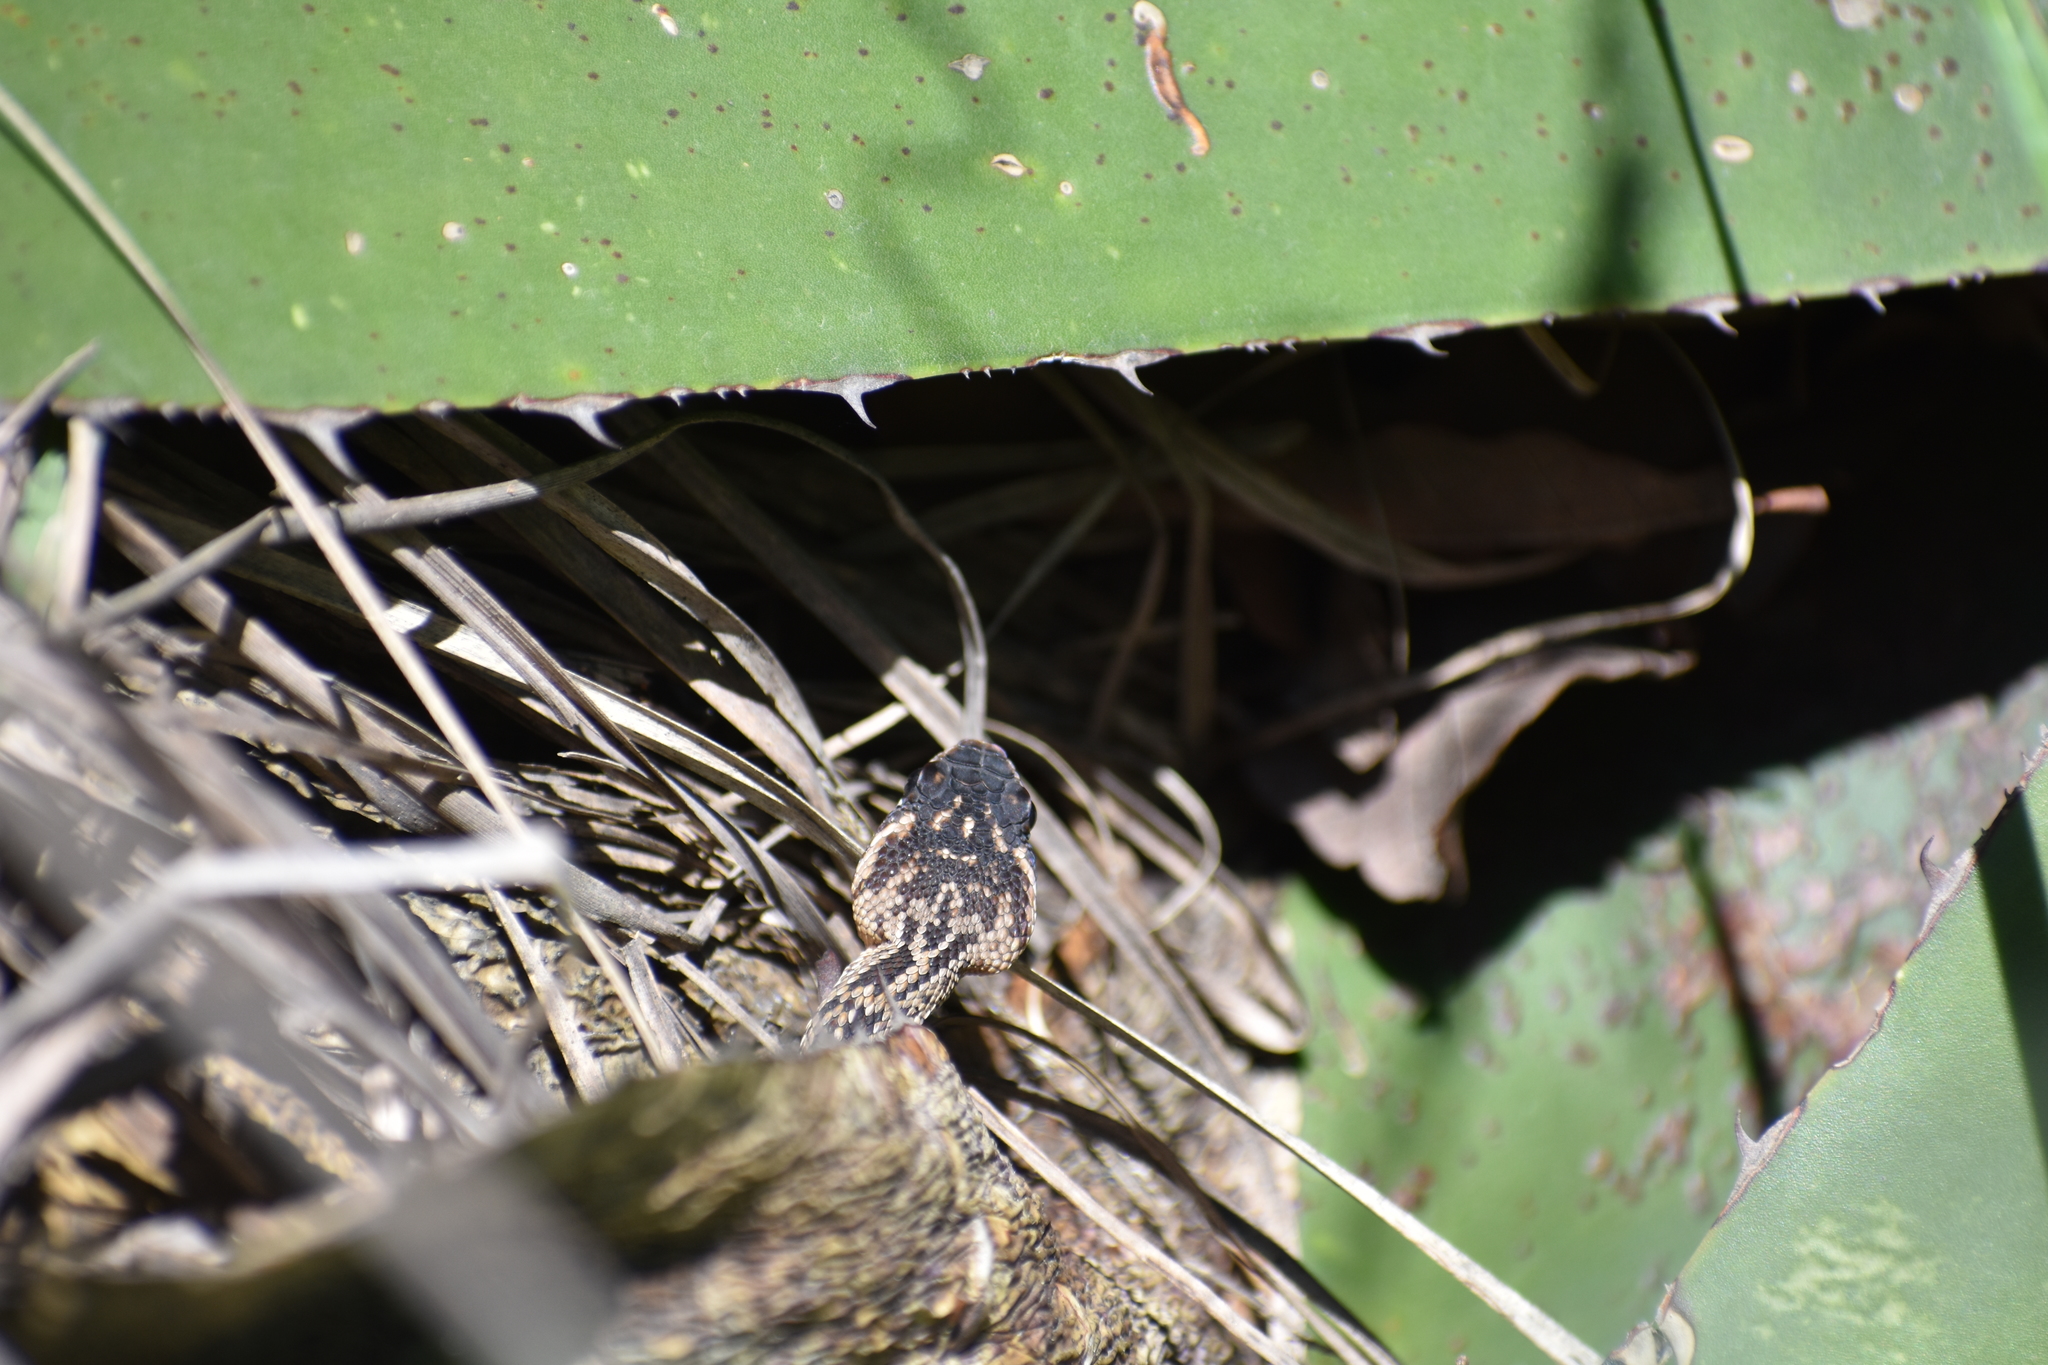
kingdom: Animalia
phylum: Chordata
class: Squamata
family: Viperidae
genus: Crotalus
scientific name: Crotalus molossus
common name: Black tailed rattlesnake
